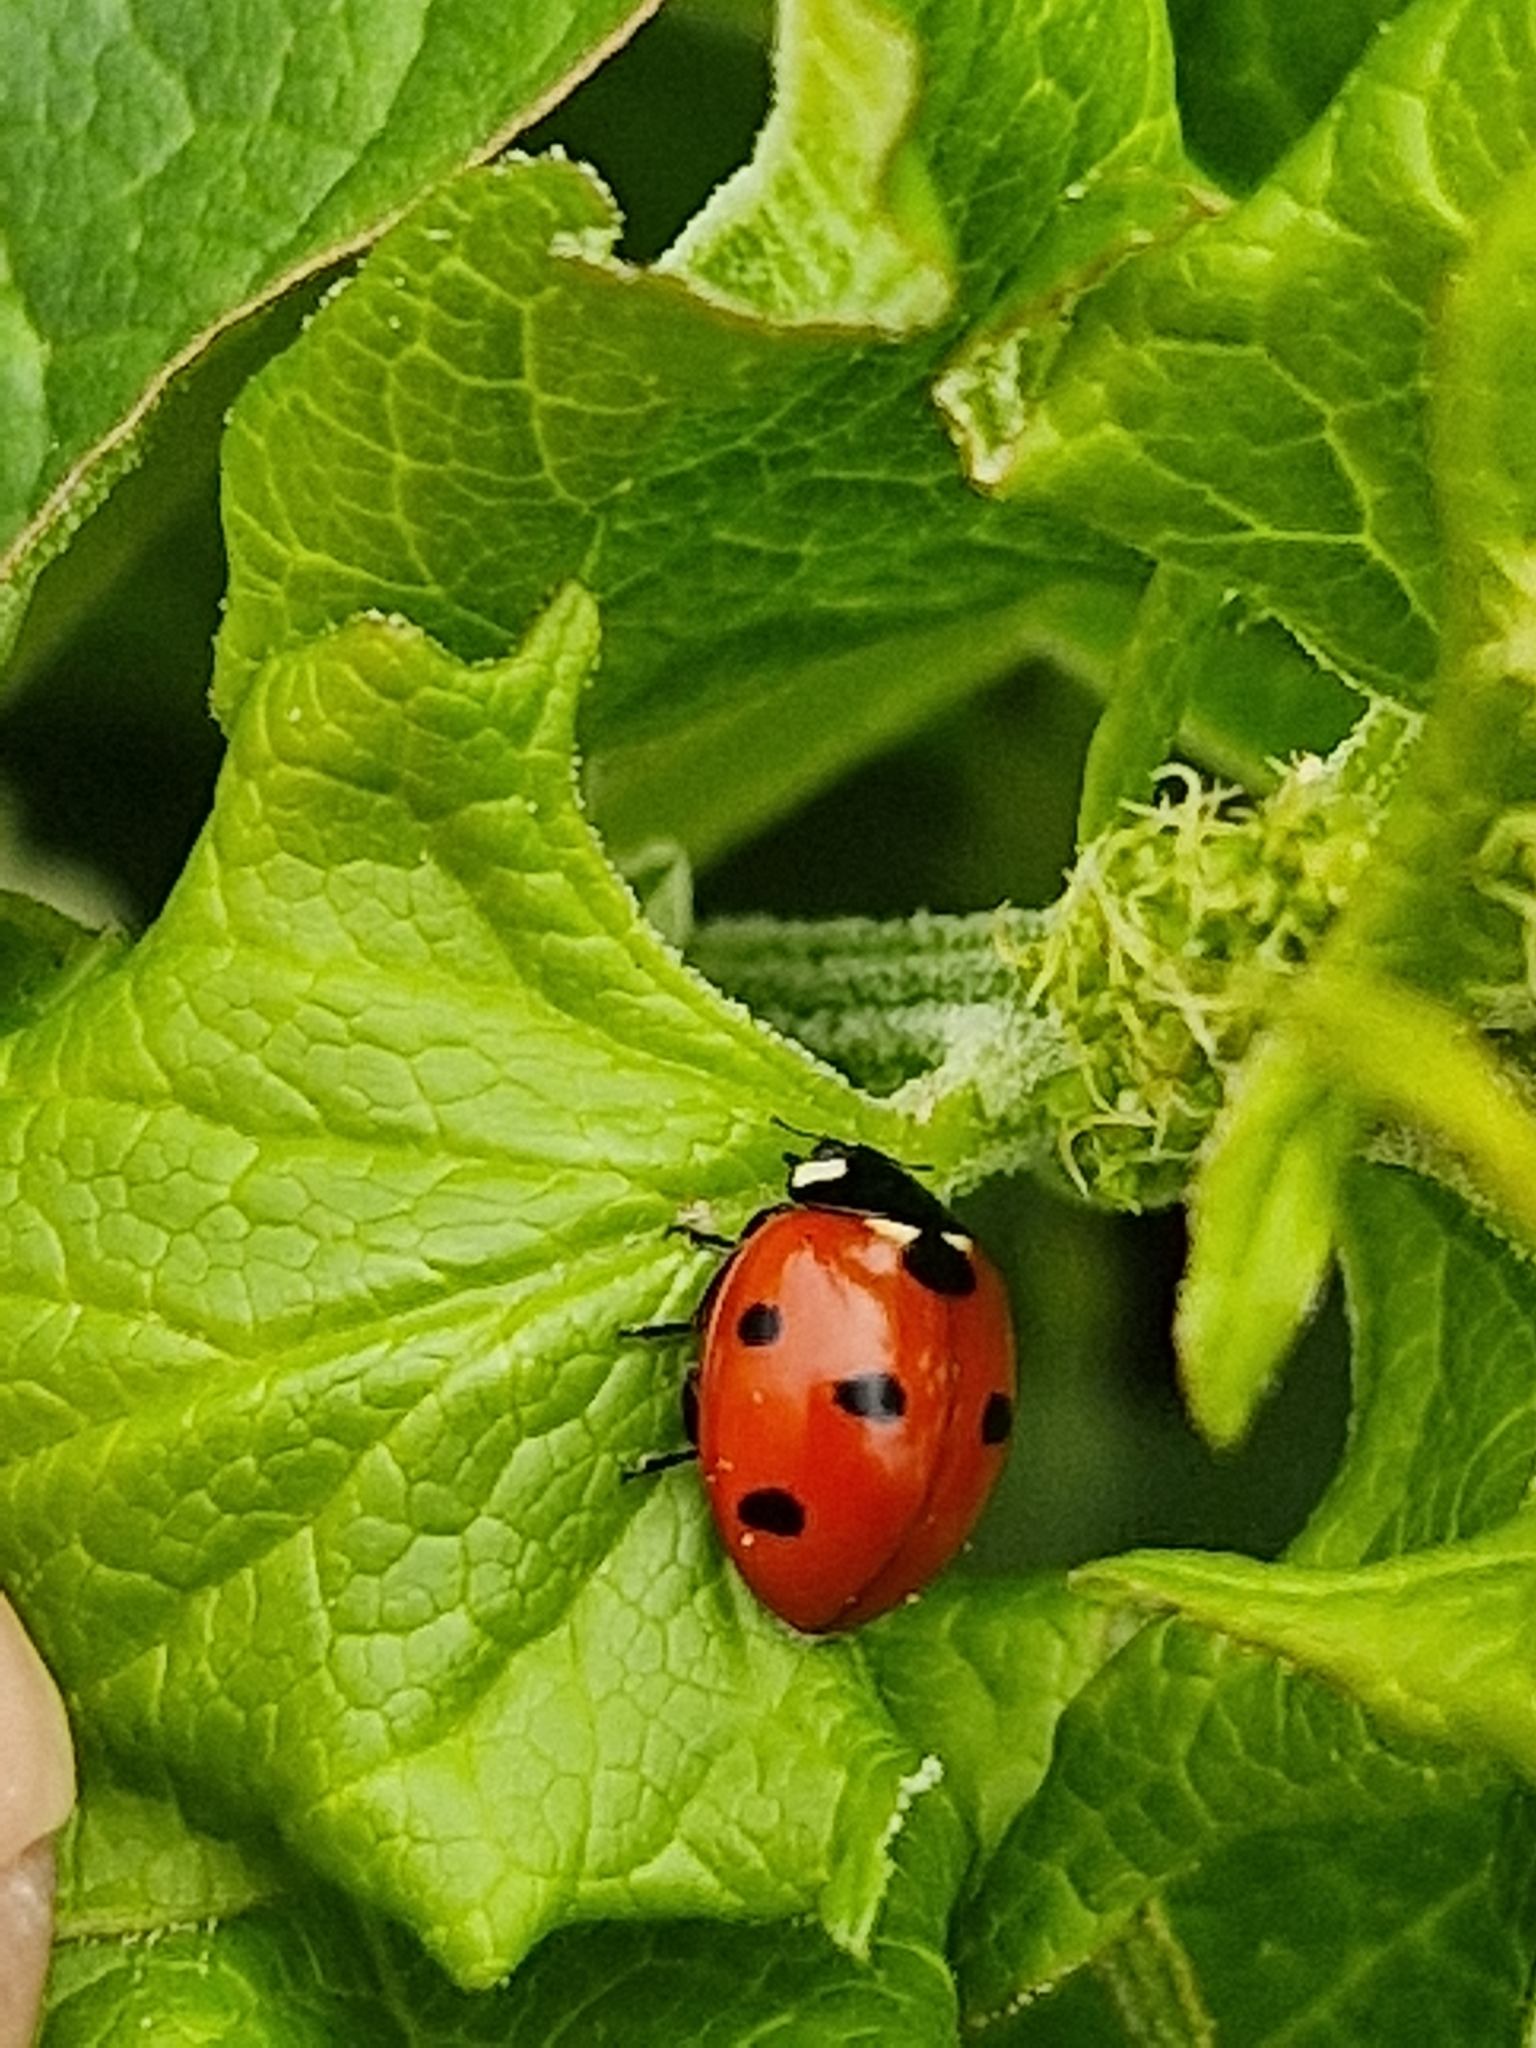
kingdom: Animalia
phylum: Arthropoda
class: Insecta
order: Coleoptera
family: Coccinellidae
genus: Coccinella
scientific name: Coccinella septempunctata
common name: Sevenspotted lady beetle
